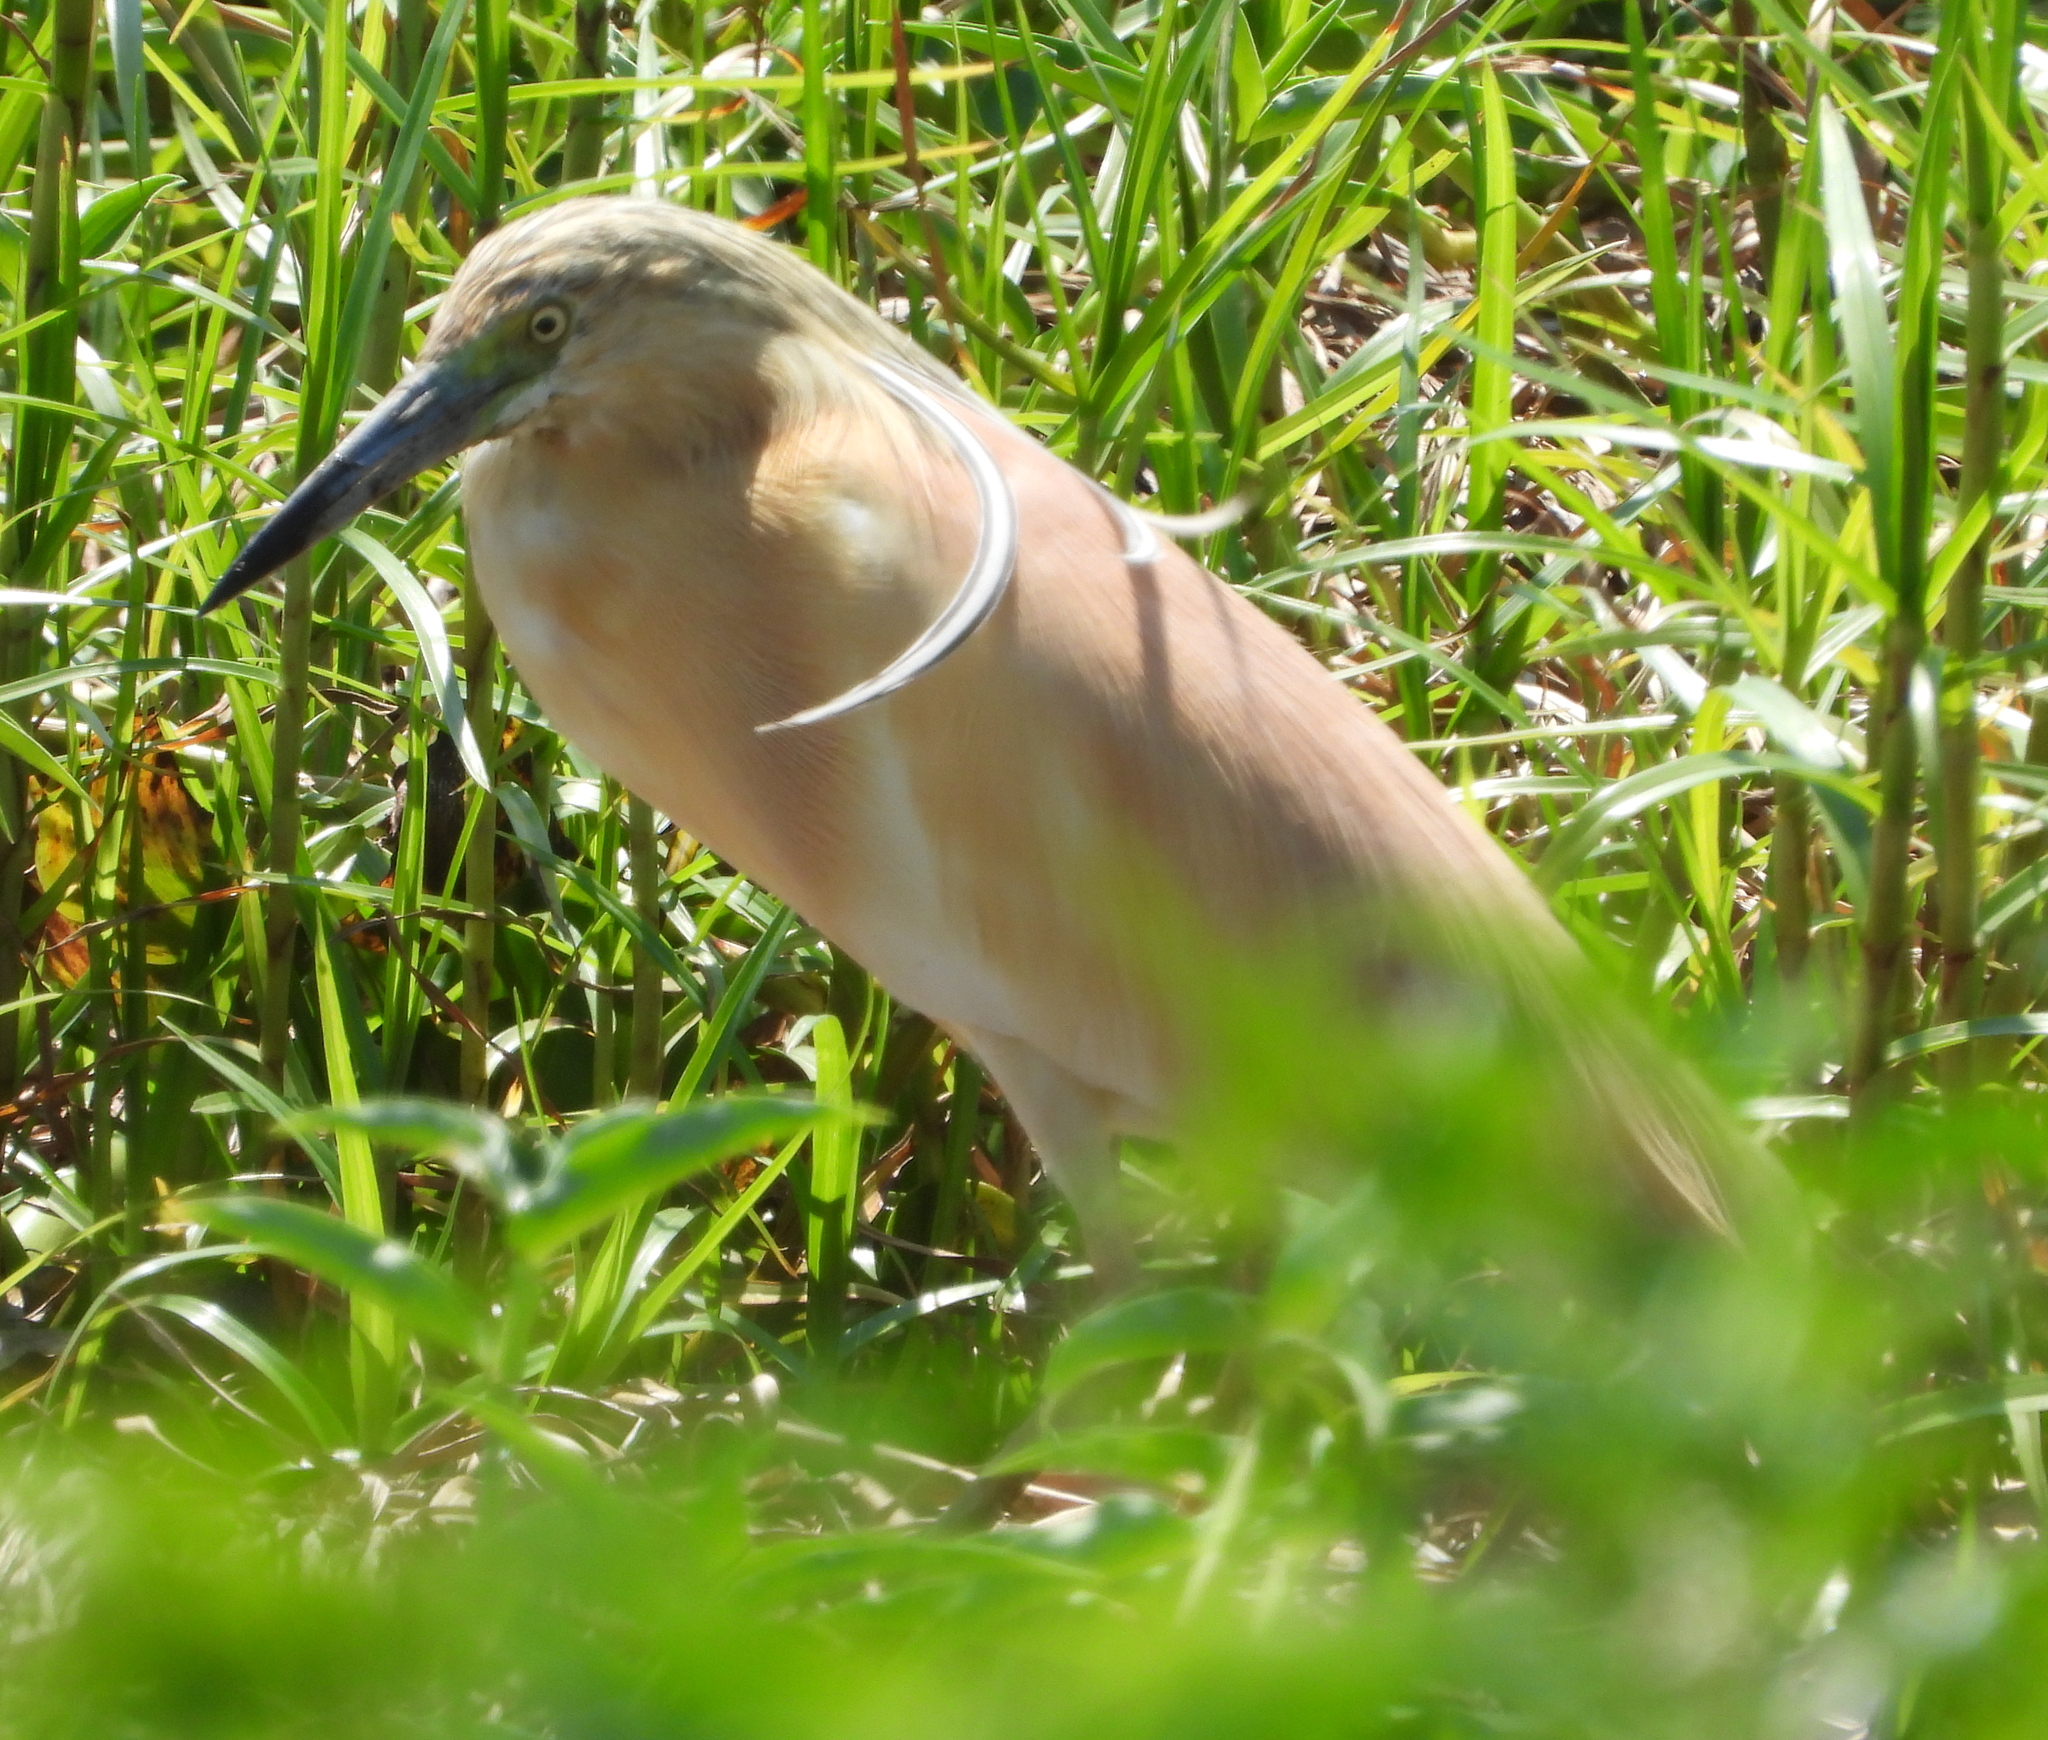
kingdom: Animalia
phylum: Chordata
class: Aves
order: Pelecaniformes
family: Ardeidae
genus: Ardeola
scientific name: Ardeola ralloides
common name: Squacco heron
